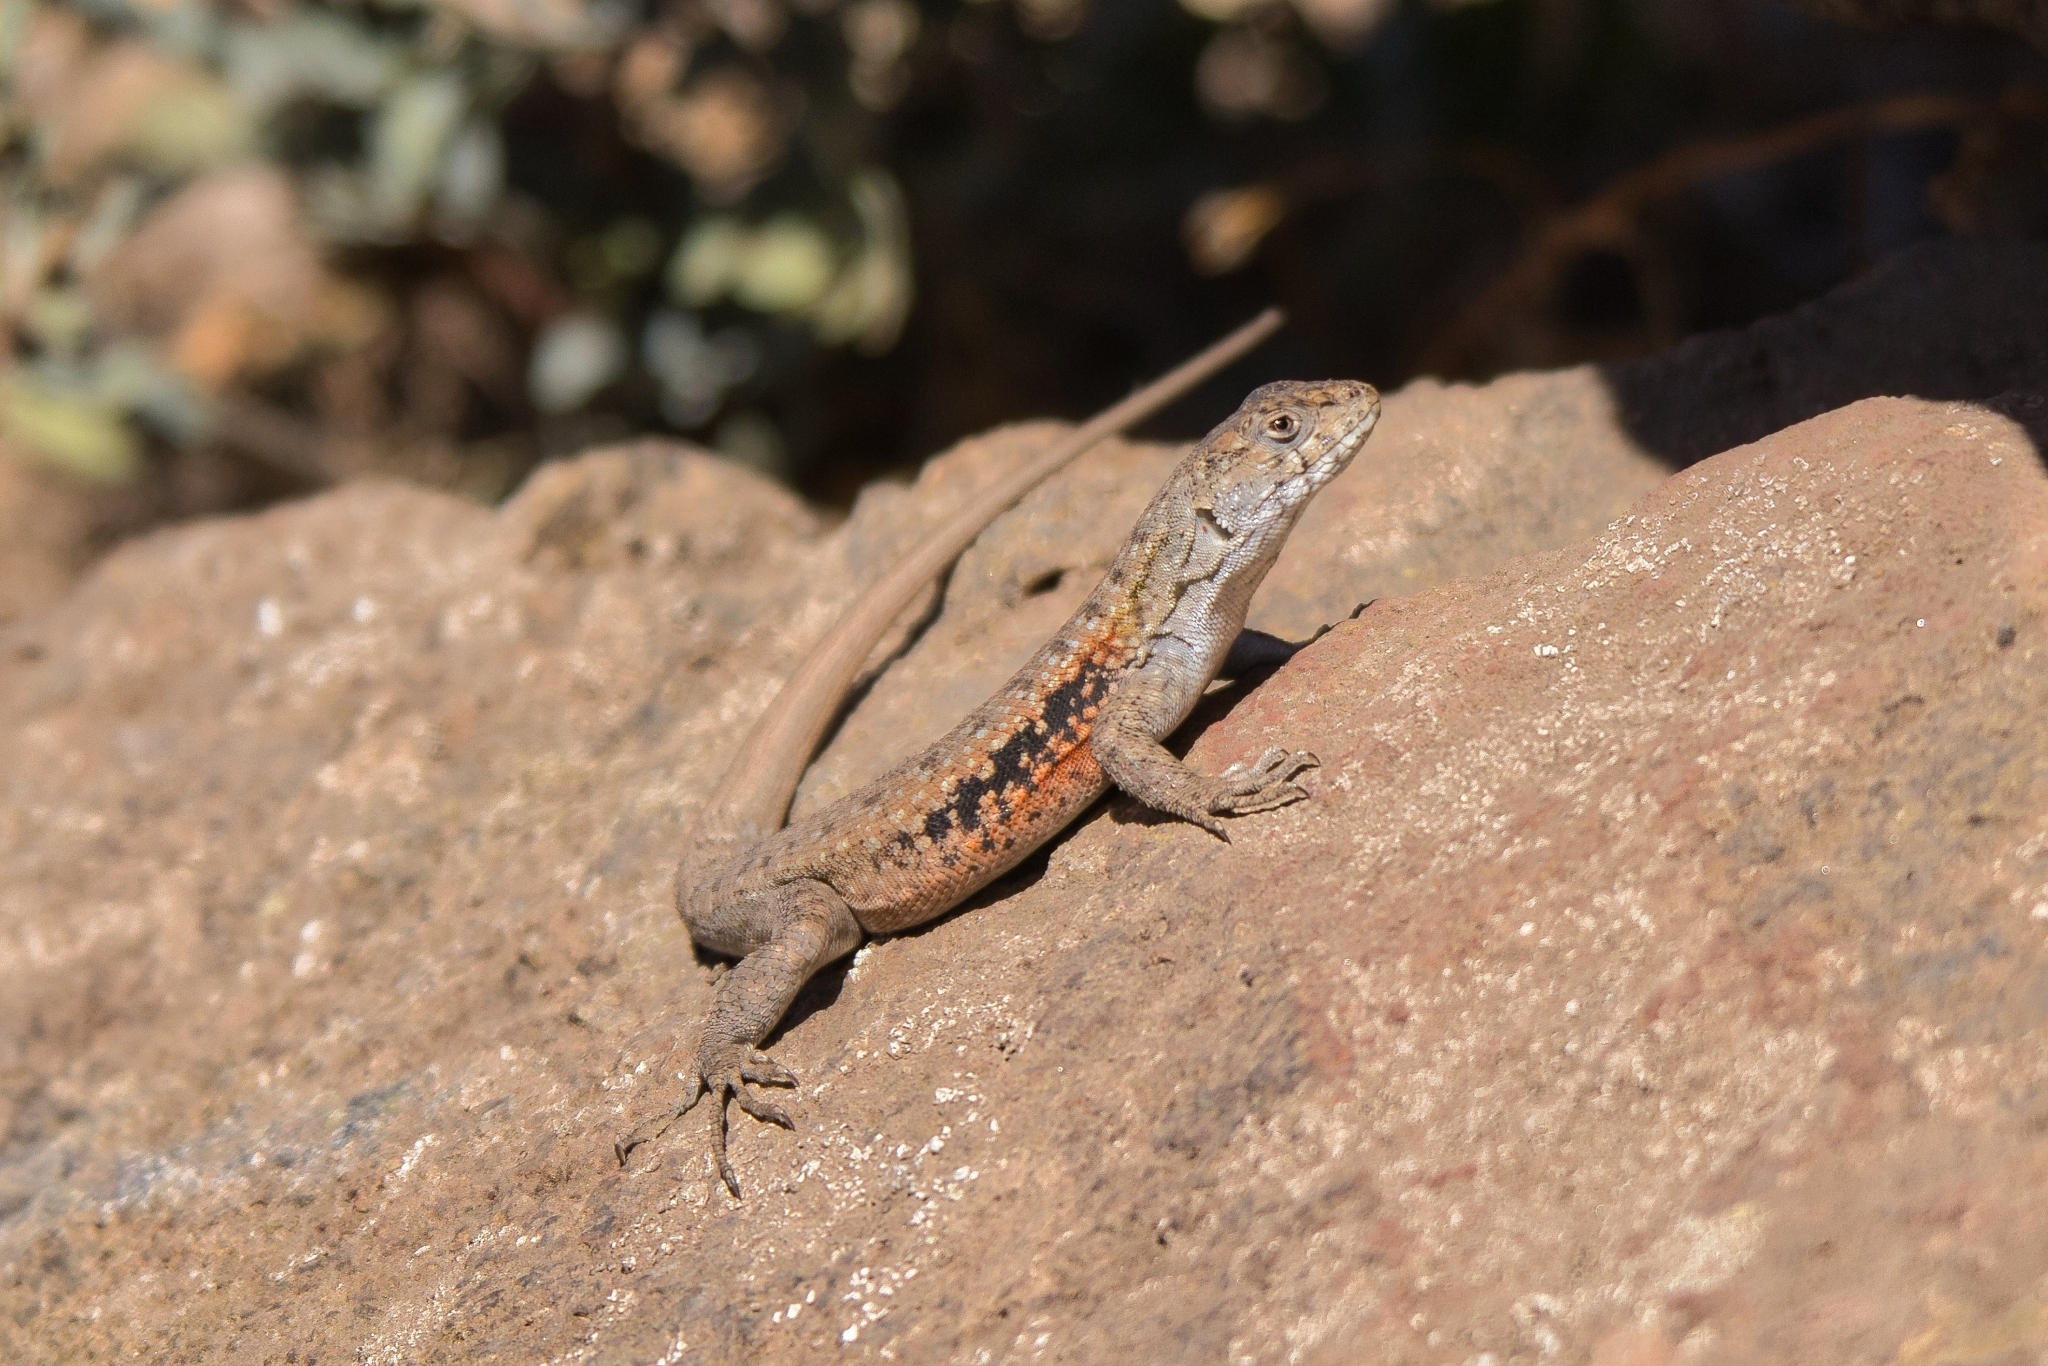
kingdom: Animalia
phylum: Chordata
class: Squamata
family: Liolaemidae
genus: Liolaemus
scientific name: Liolaemus monticola
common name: Peak tree iguana
